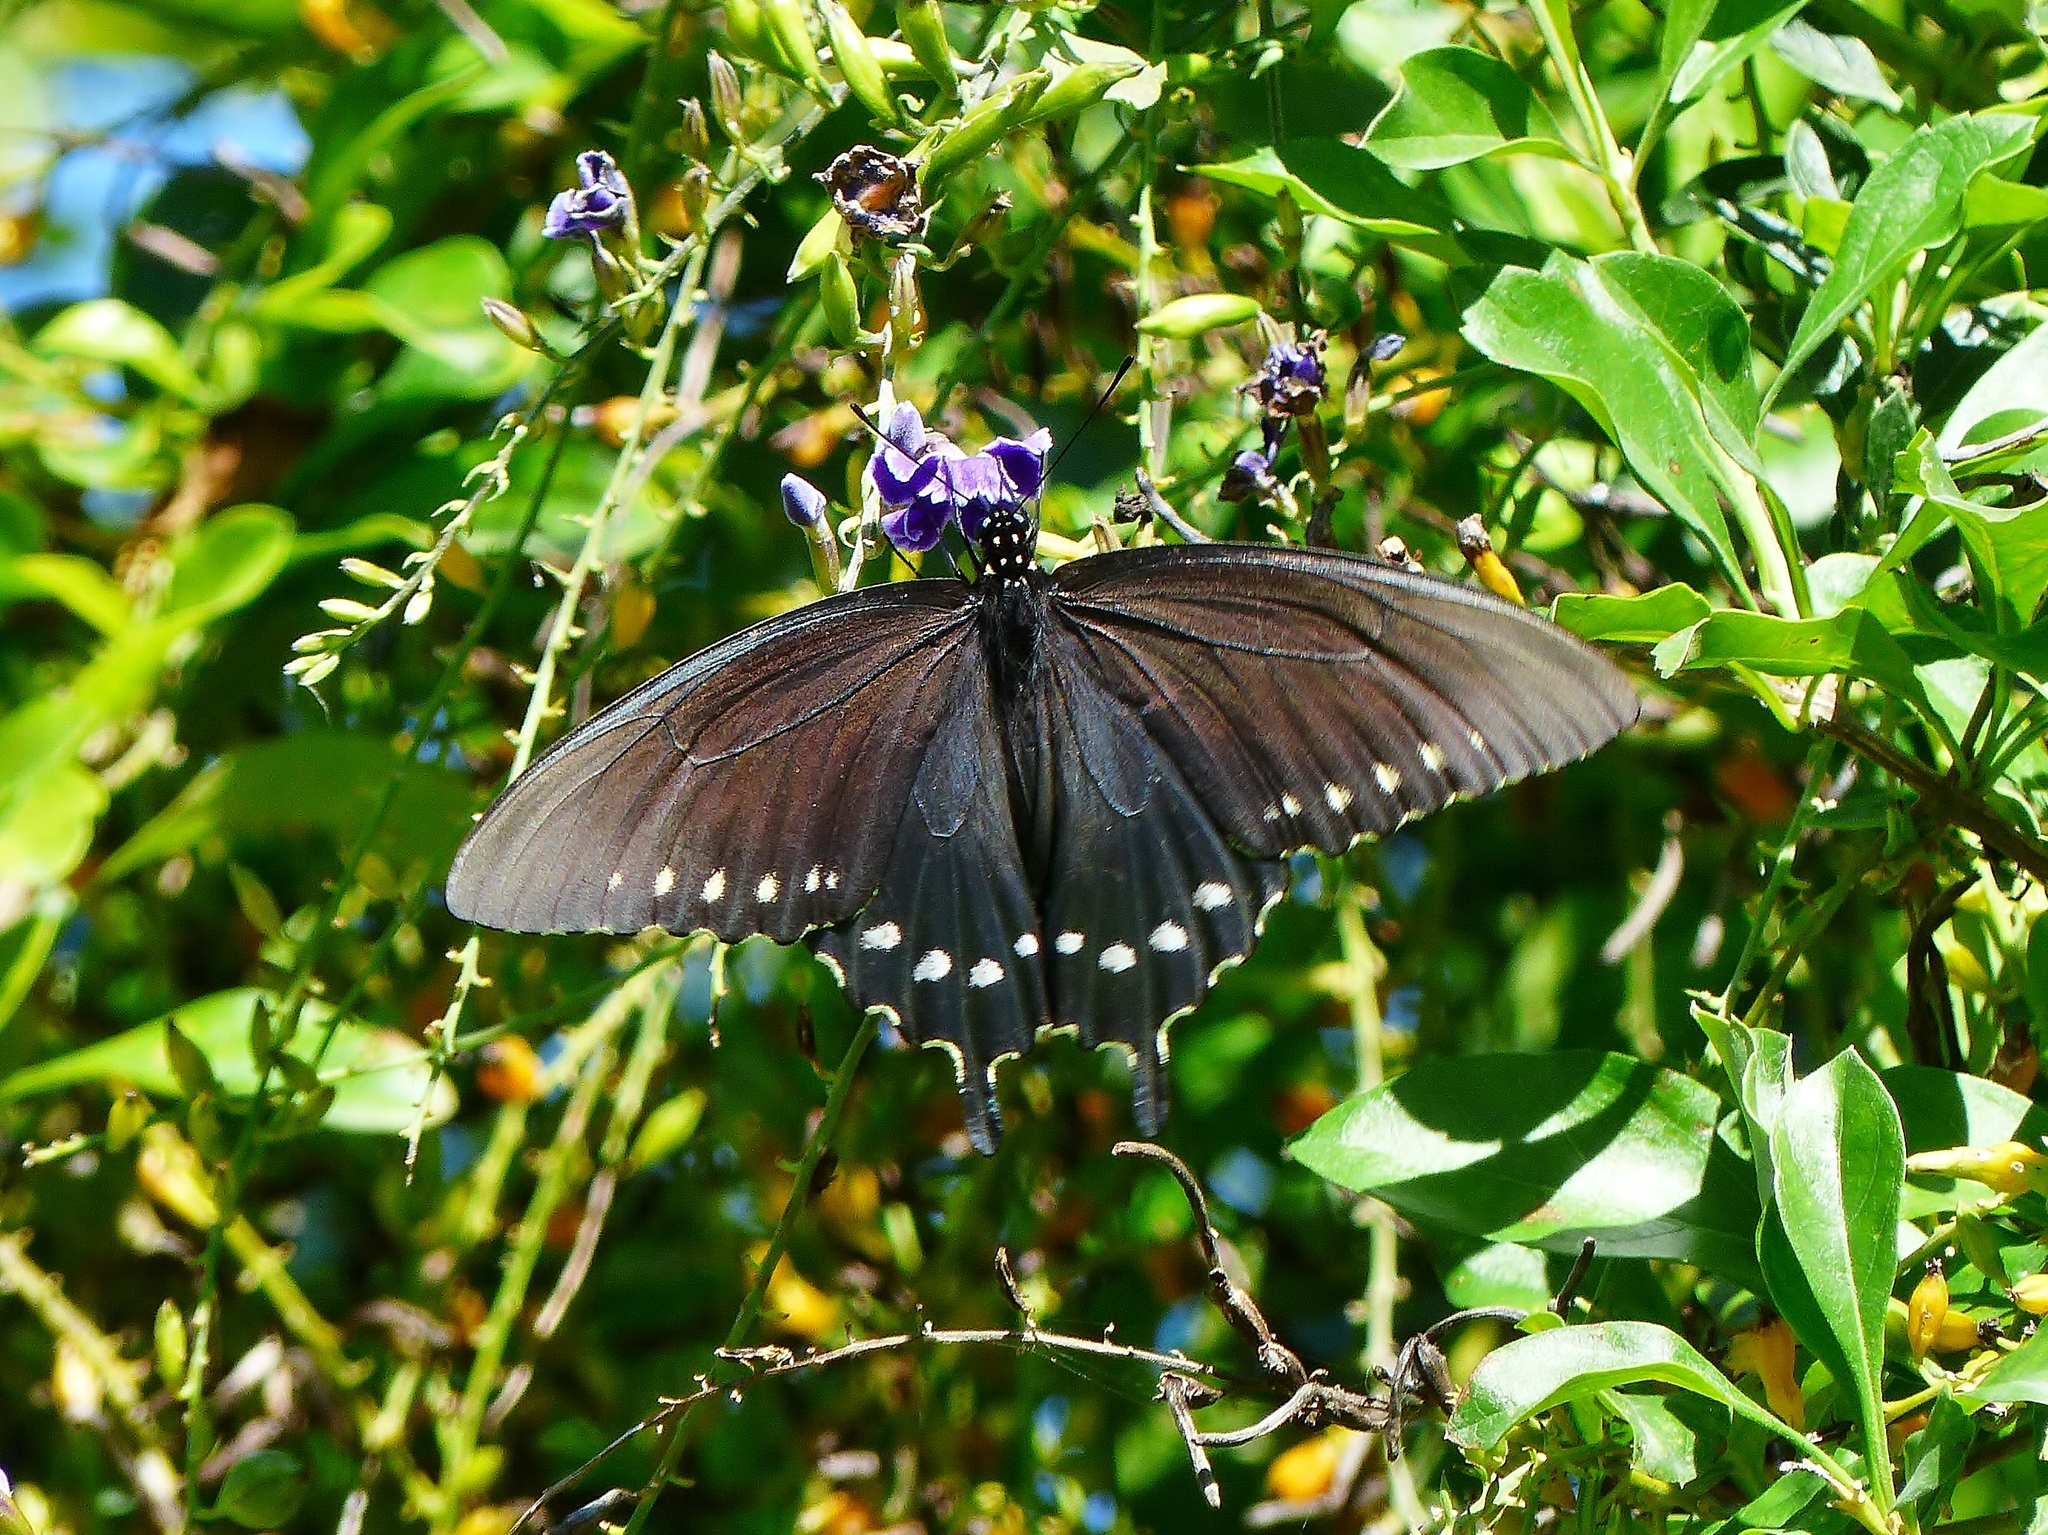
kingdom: Animalia
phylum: Arthropoda
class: Insecta
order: Lepidoptera
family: Papilionidae
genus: Battus
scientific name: Battus philenor
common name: Pipevine swallowtail
